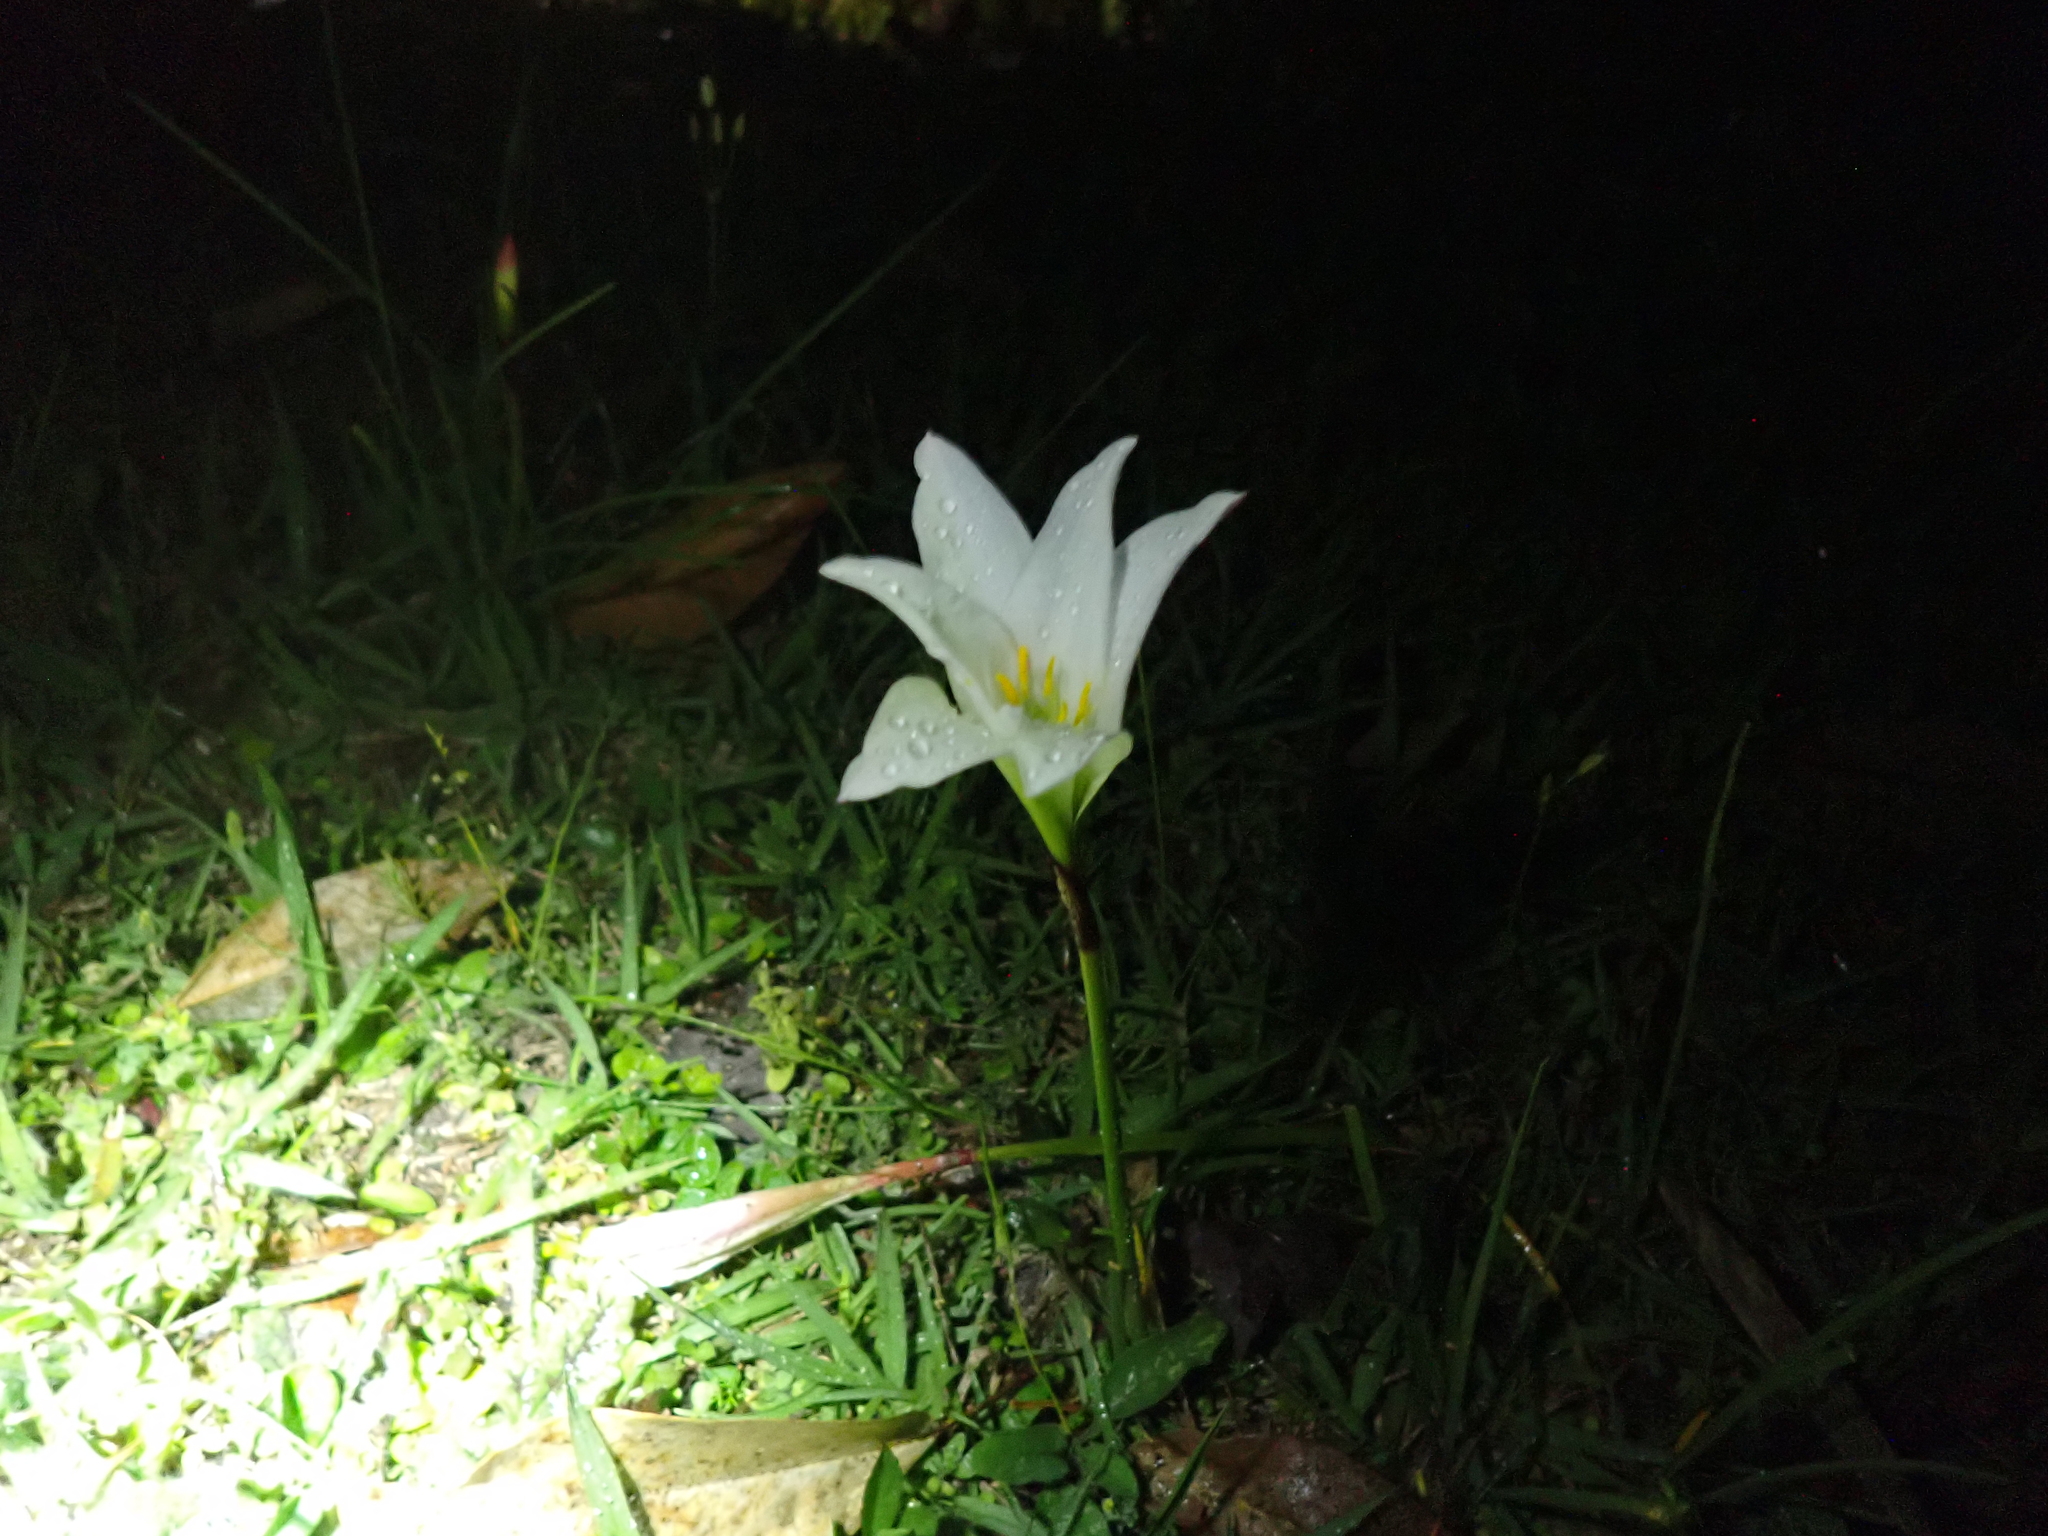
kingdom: Plantae
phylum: Tracheophyta
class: Liliopsida
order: Asparagales
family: Amaryllidaceae
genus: Zephyranthes
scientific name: Zephyranthes atamasco
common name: Atamasco lily
